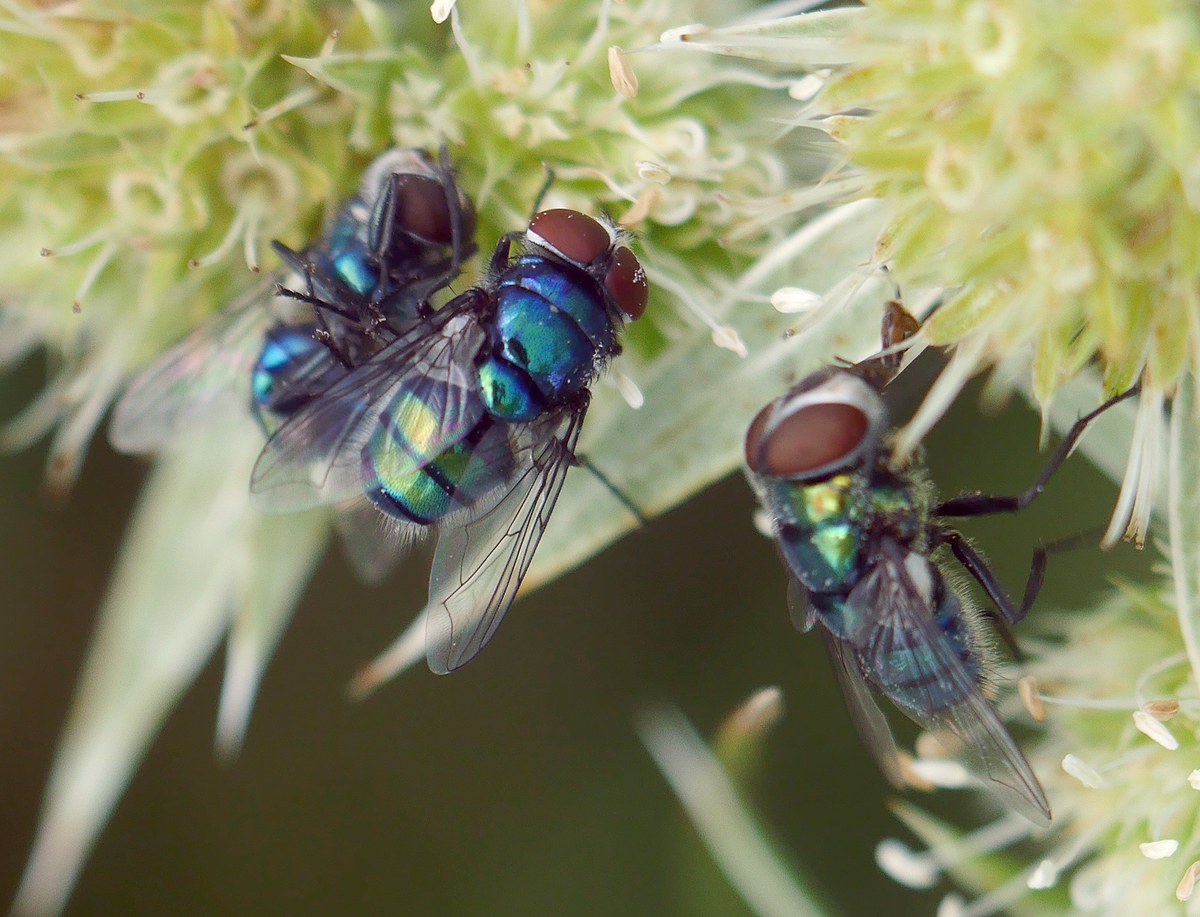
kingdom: Animalia
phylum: Arthropoda
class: Insecta
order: Diptera
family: Calliphoridae
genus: Chrysomya
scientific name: Chrysomya albiceps
